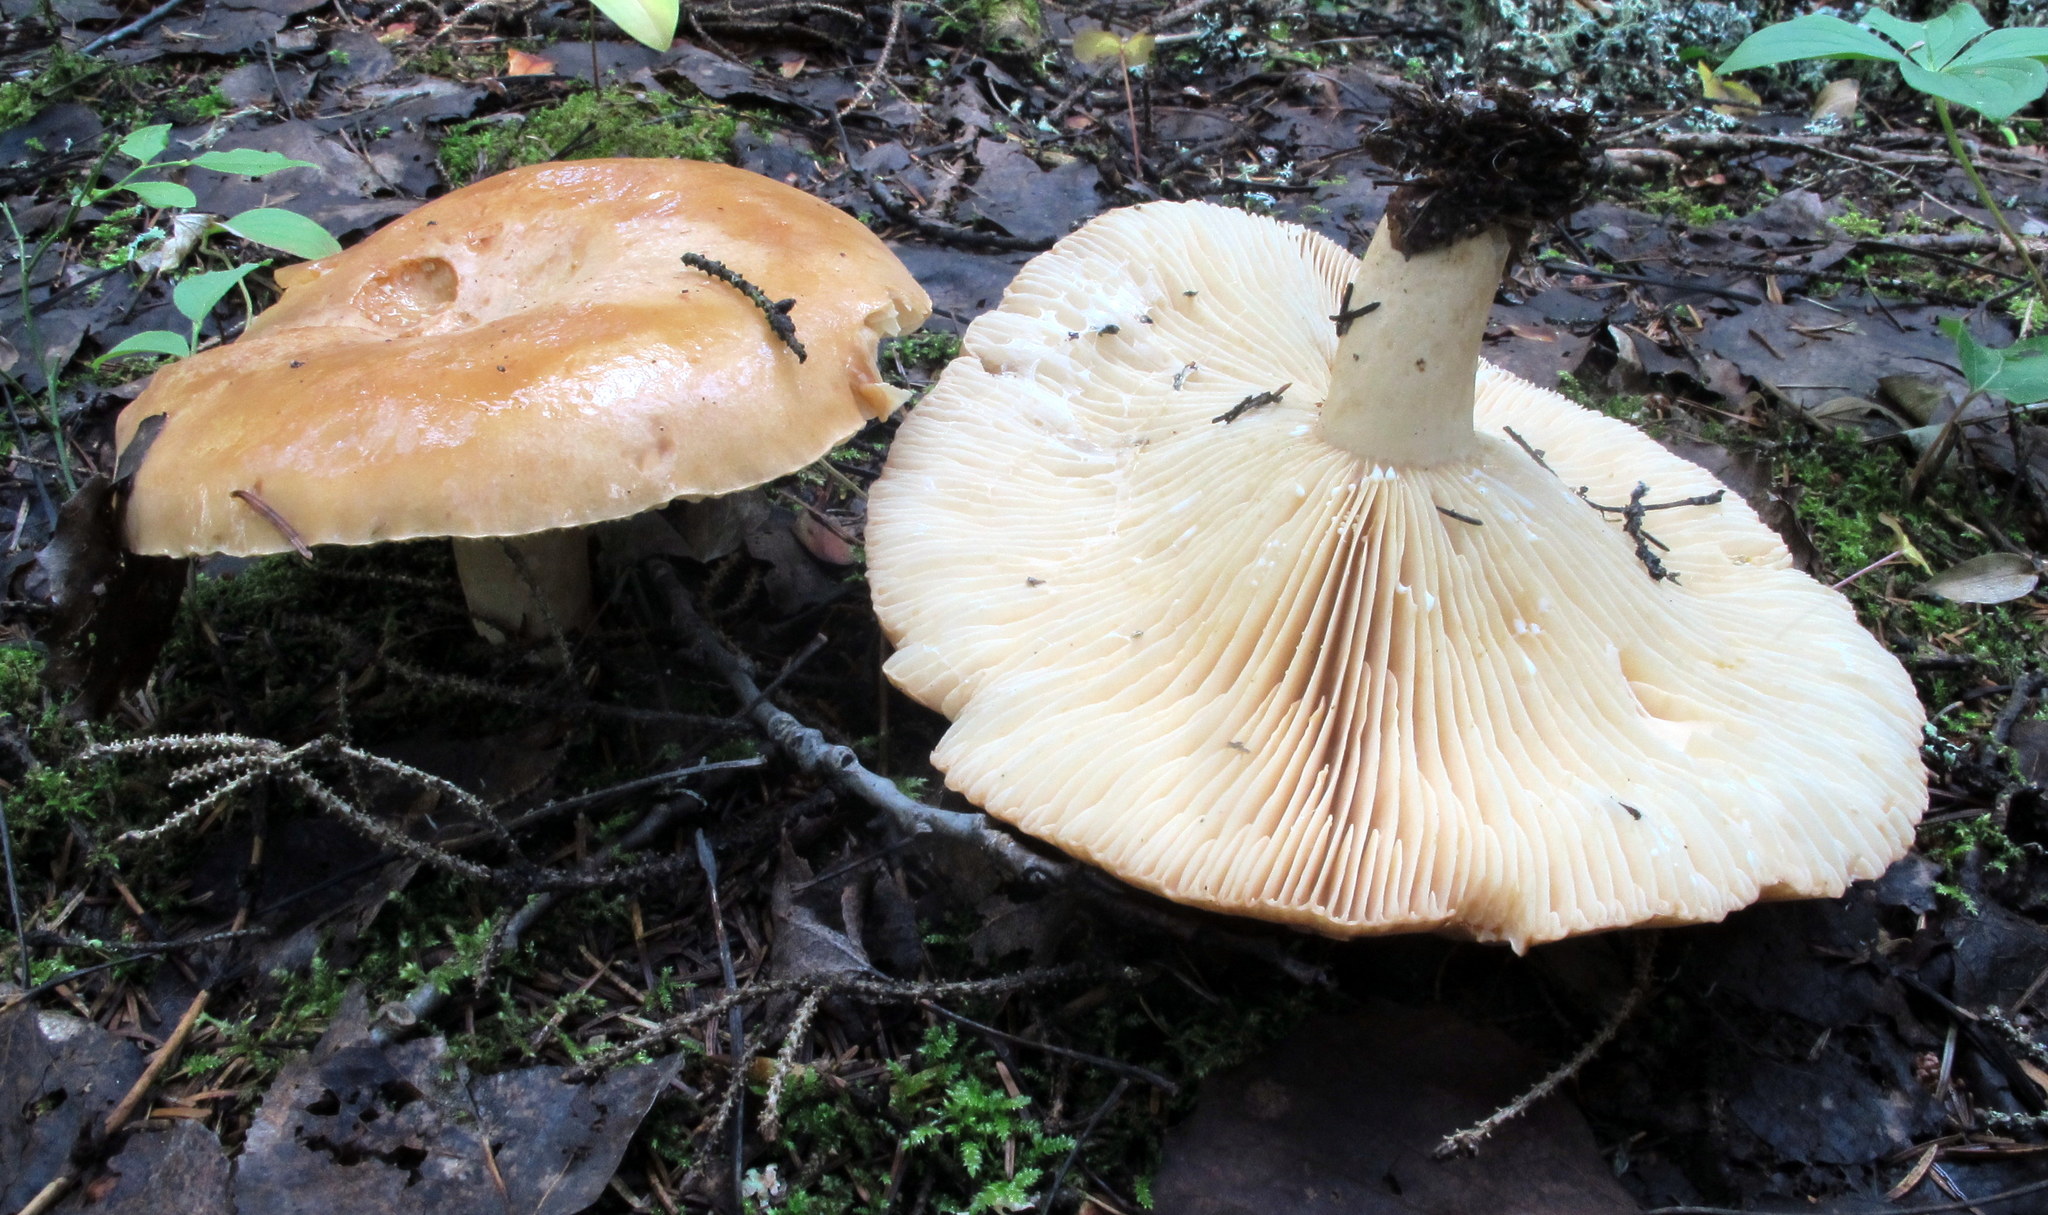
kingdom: Fungi
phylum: Basidiomycota
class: Agaricomycetes
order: Russulales
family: Russulaceae
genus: Lactarius
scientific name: Lactarius affinis
